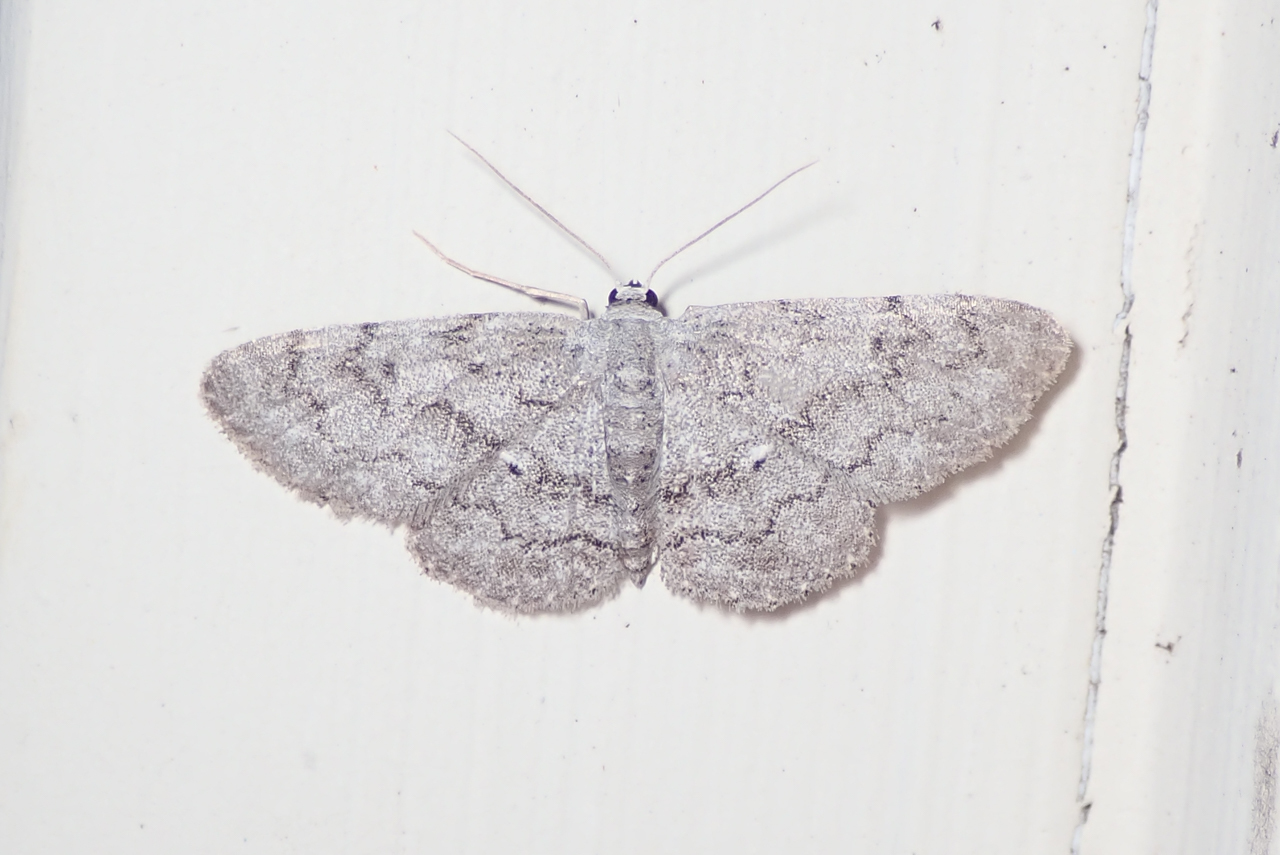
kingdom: Animalia
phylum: Arthropoda
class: Insecta
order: Lepidoptera
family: Geometridae
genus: Idaea
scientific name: Idaea violacearia
